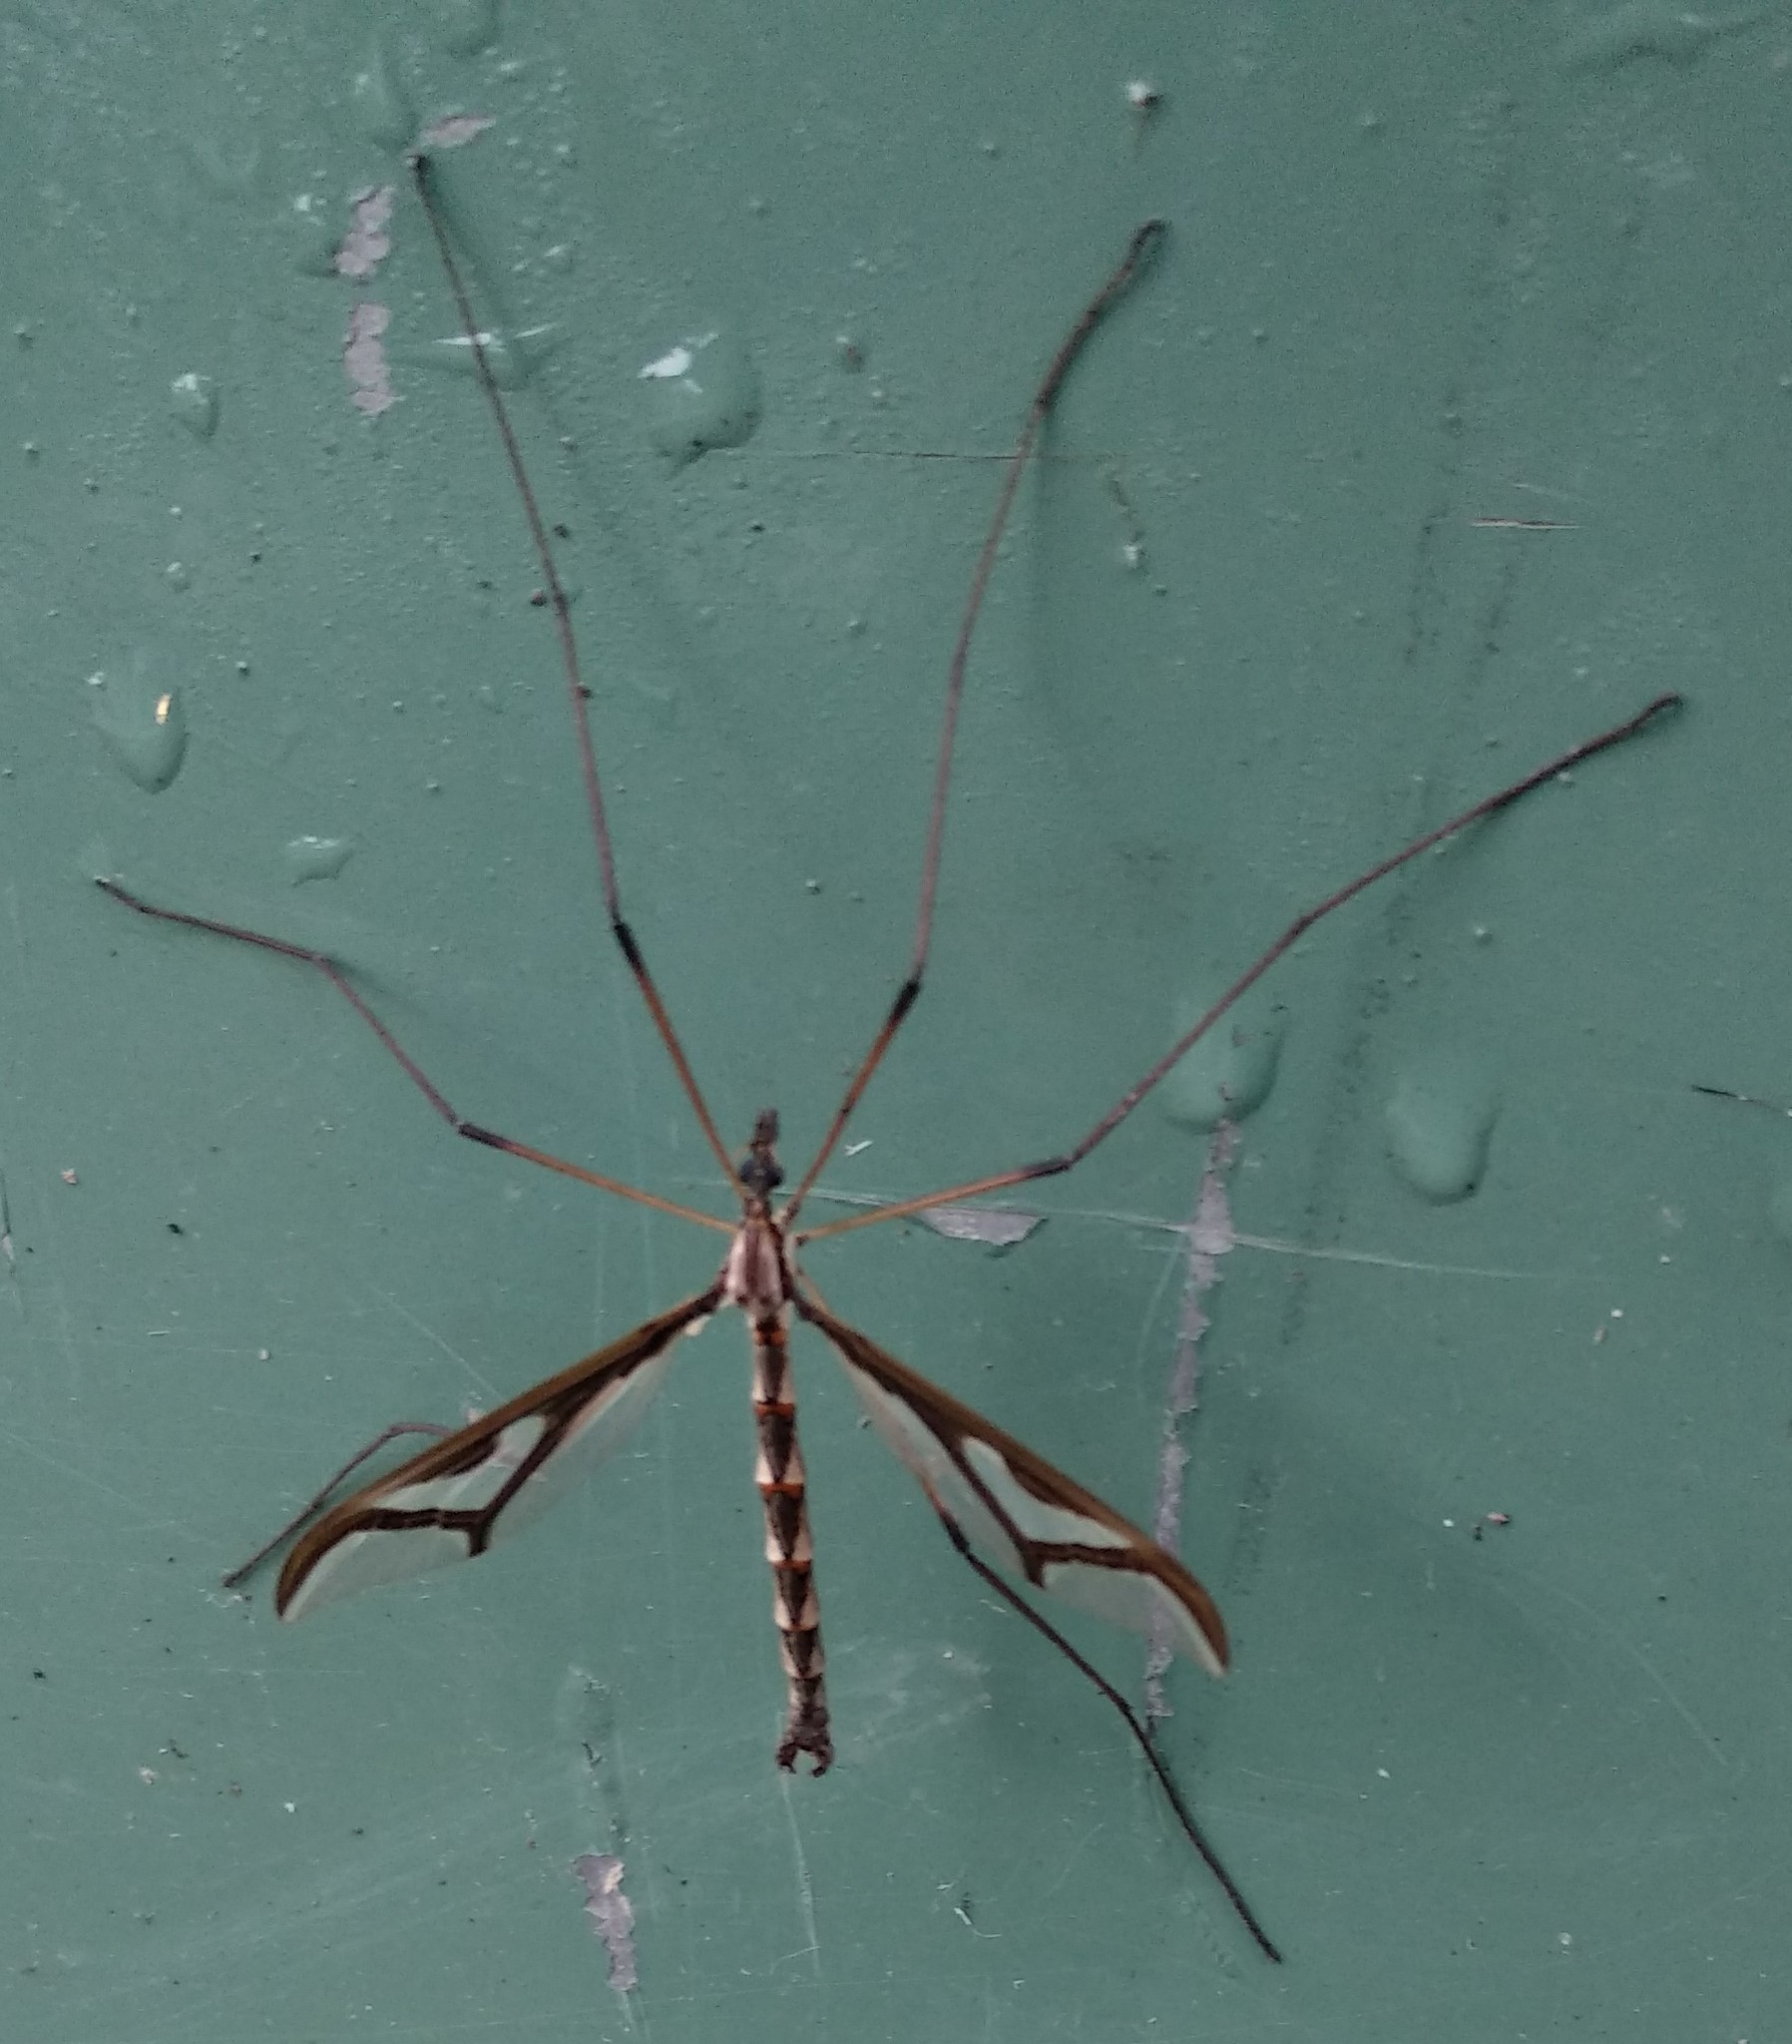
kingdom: Animalia
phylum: Arthropoda
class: Insecta
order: Diptera
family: Pediciidae
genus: Pedicia
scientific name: Pedicia albivitta
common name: Giant eastern crane fly
